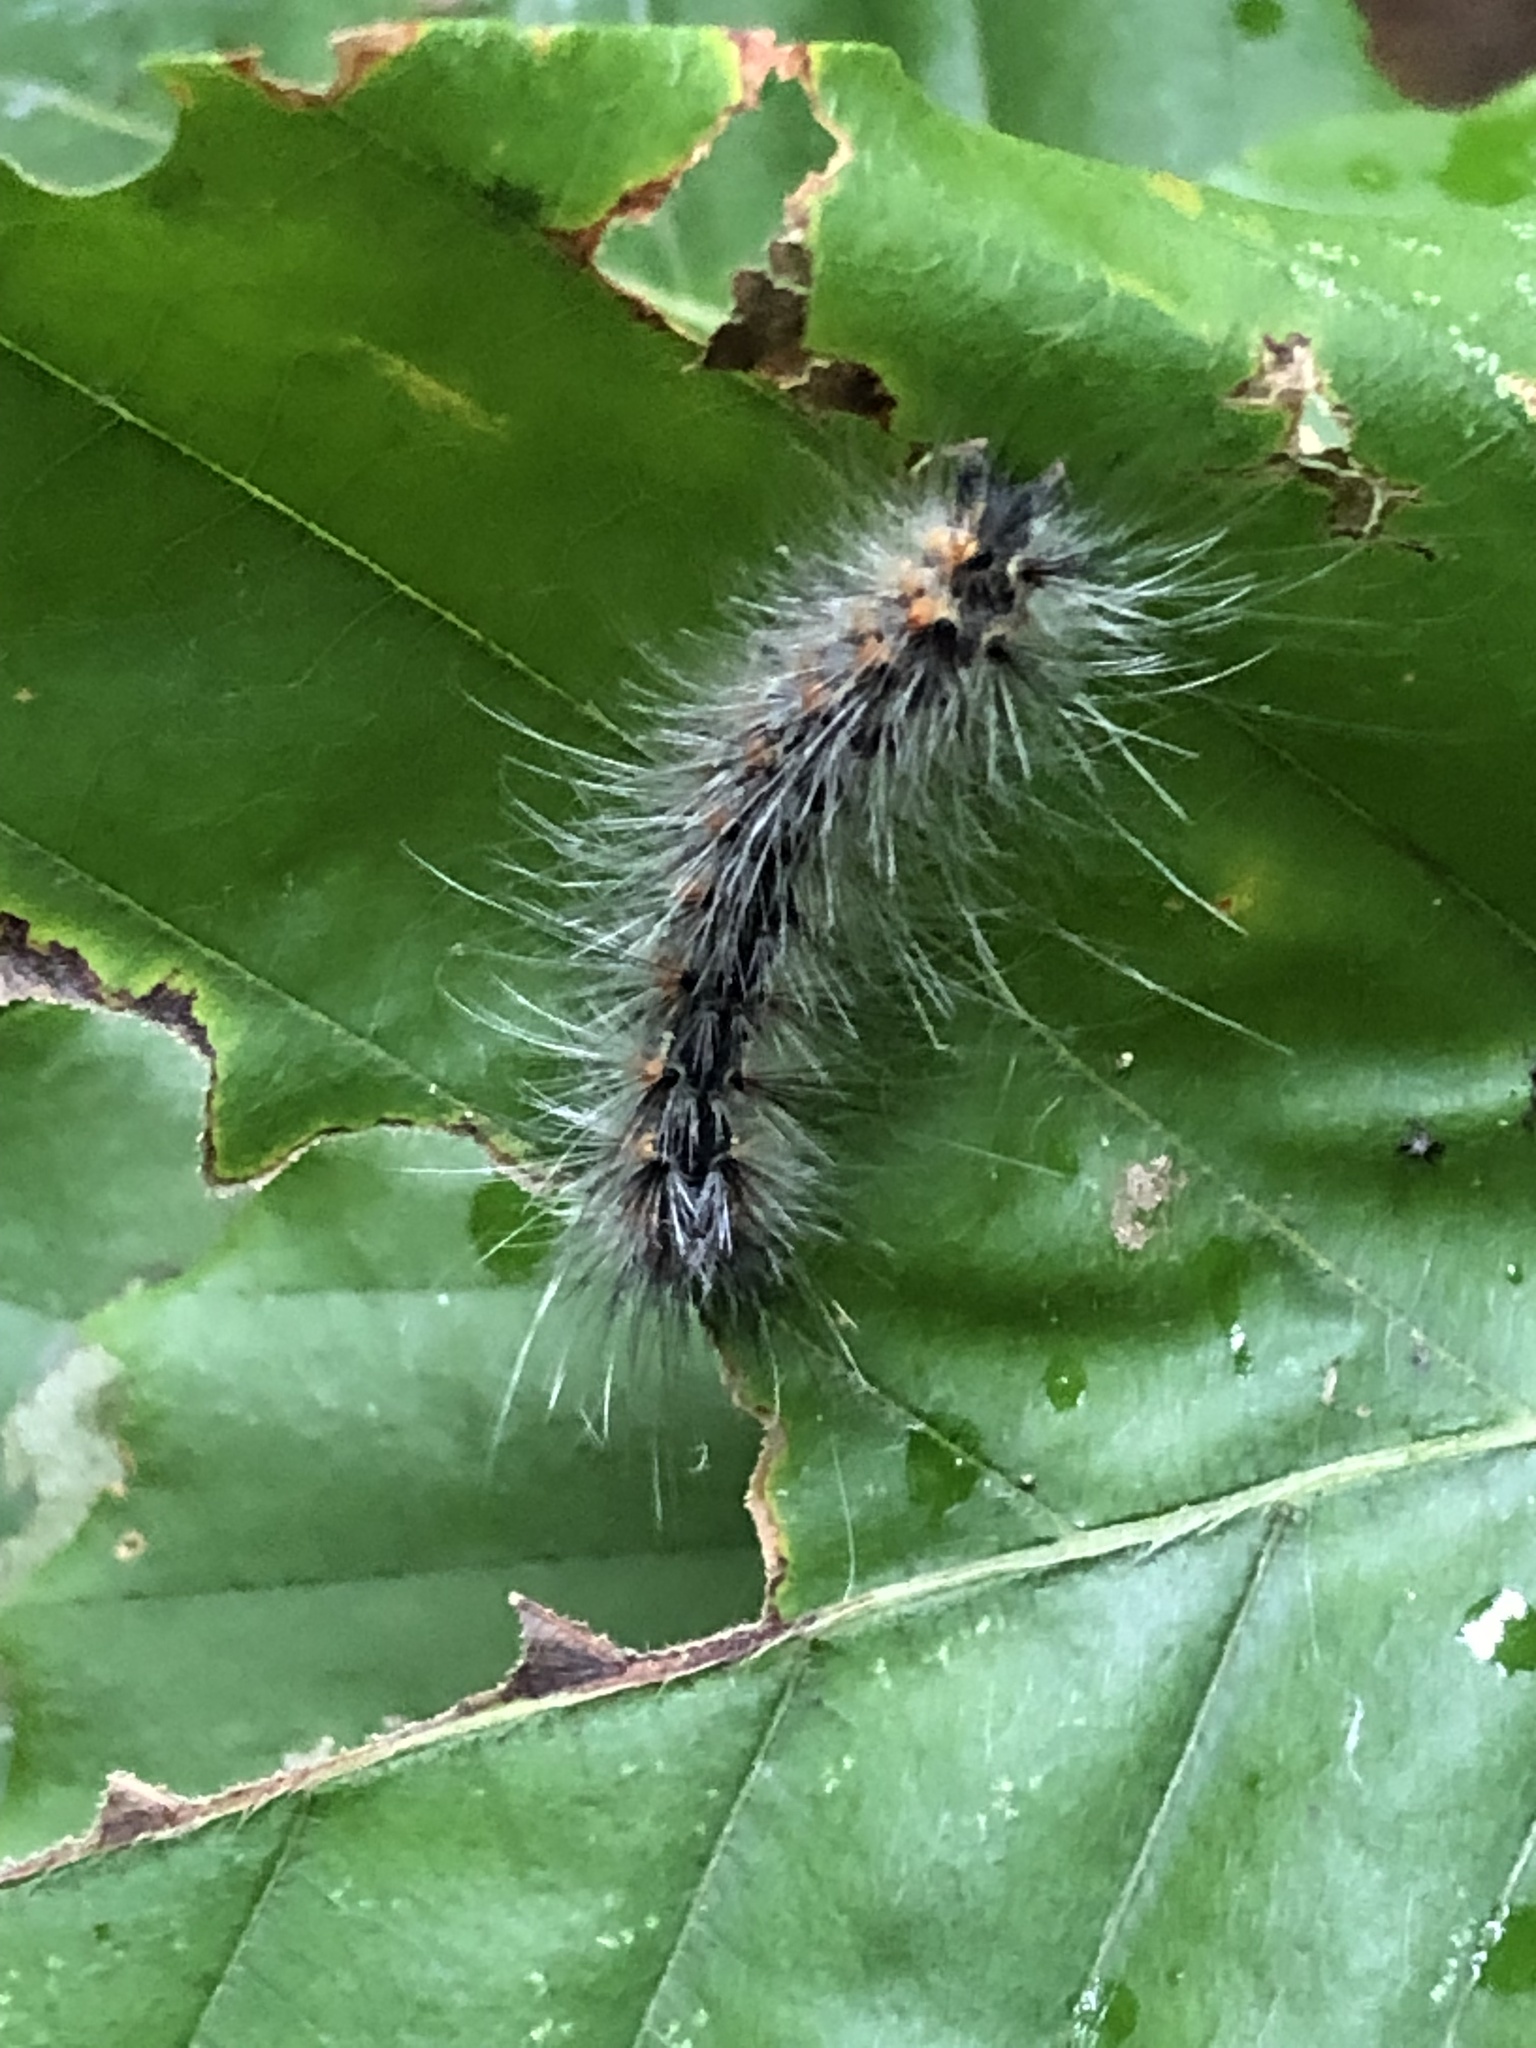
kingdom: Animalia
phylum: Arthropoda
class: Insecta
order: Lepidoptera
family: Erebidae
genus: Hyphantria
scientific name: Hyphantria cunea
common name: American white moth
